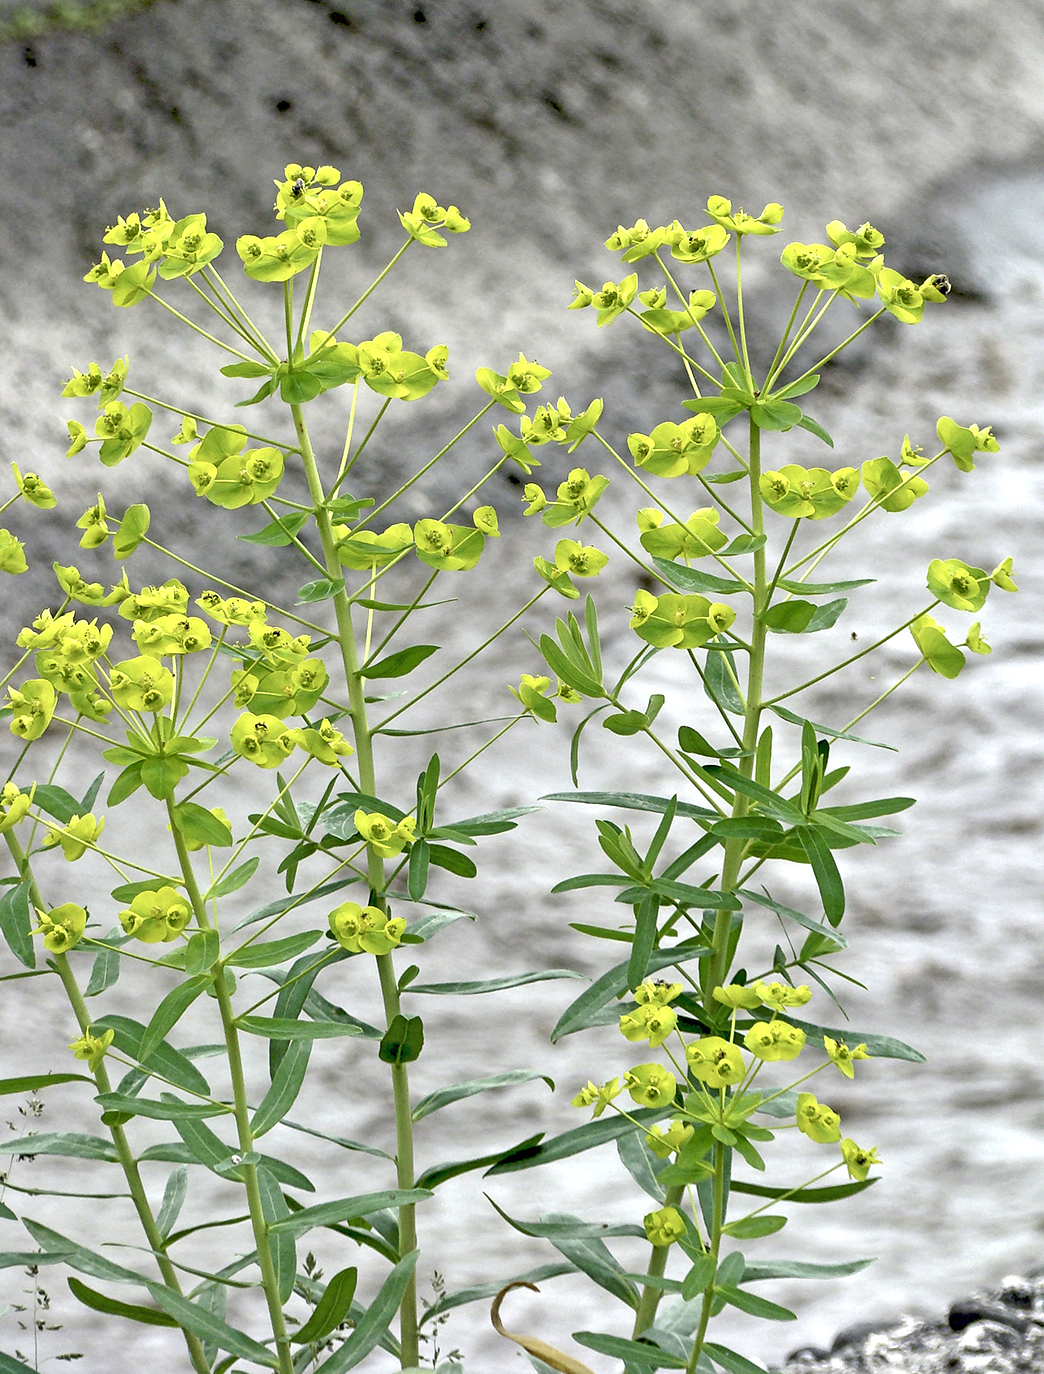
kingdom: Plantae
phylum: Tracheophyta
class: Magnoliopsida
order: Malpighiales
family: Euphorbiaceae
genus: Euphorbia
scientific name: Euphorbia virgata
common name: Leafy spurge
